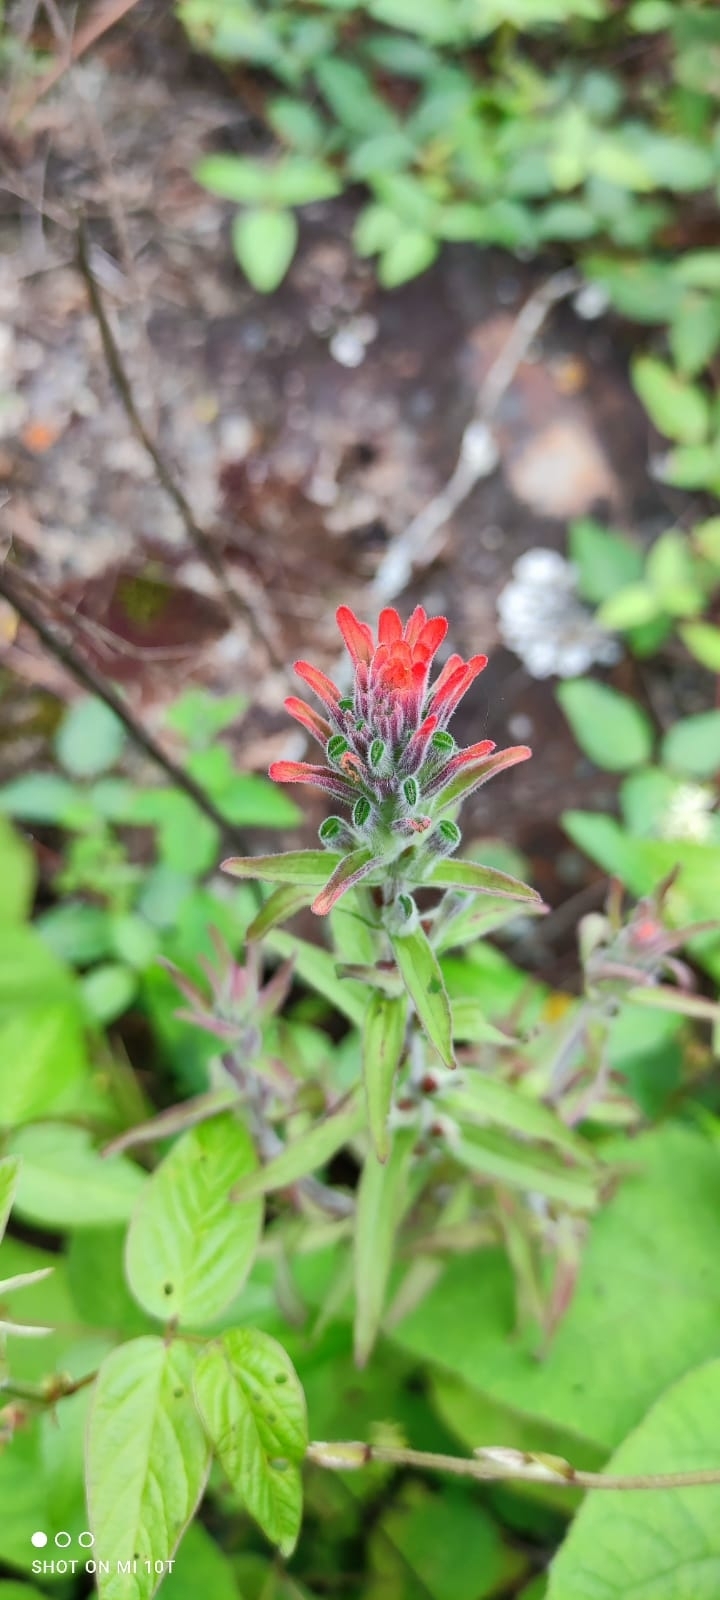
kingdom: Plantae
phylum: Tracheophyta
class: Magnoliopsida
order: Lamiales
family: Orobanchaceae
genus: Castilleja
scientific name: Castilleja arvensis
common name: Indian paintbrush
